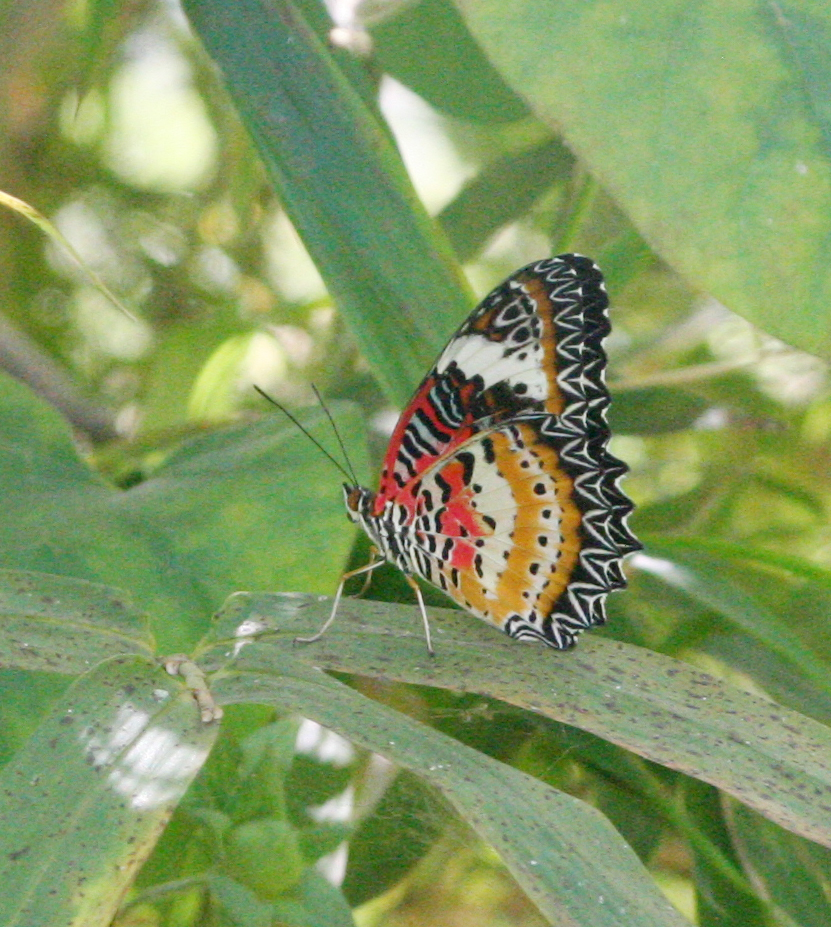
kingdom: Animalia
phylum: Arthropoda
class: Insecta
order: Lepidoptera
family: Nymphalidae
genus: Cethosia
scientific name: Cethosia cyane
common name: Leopard lacewing butterfly
